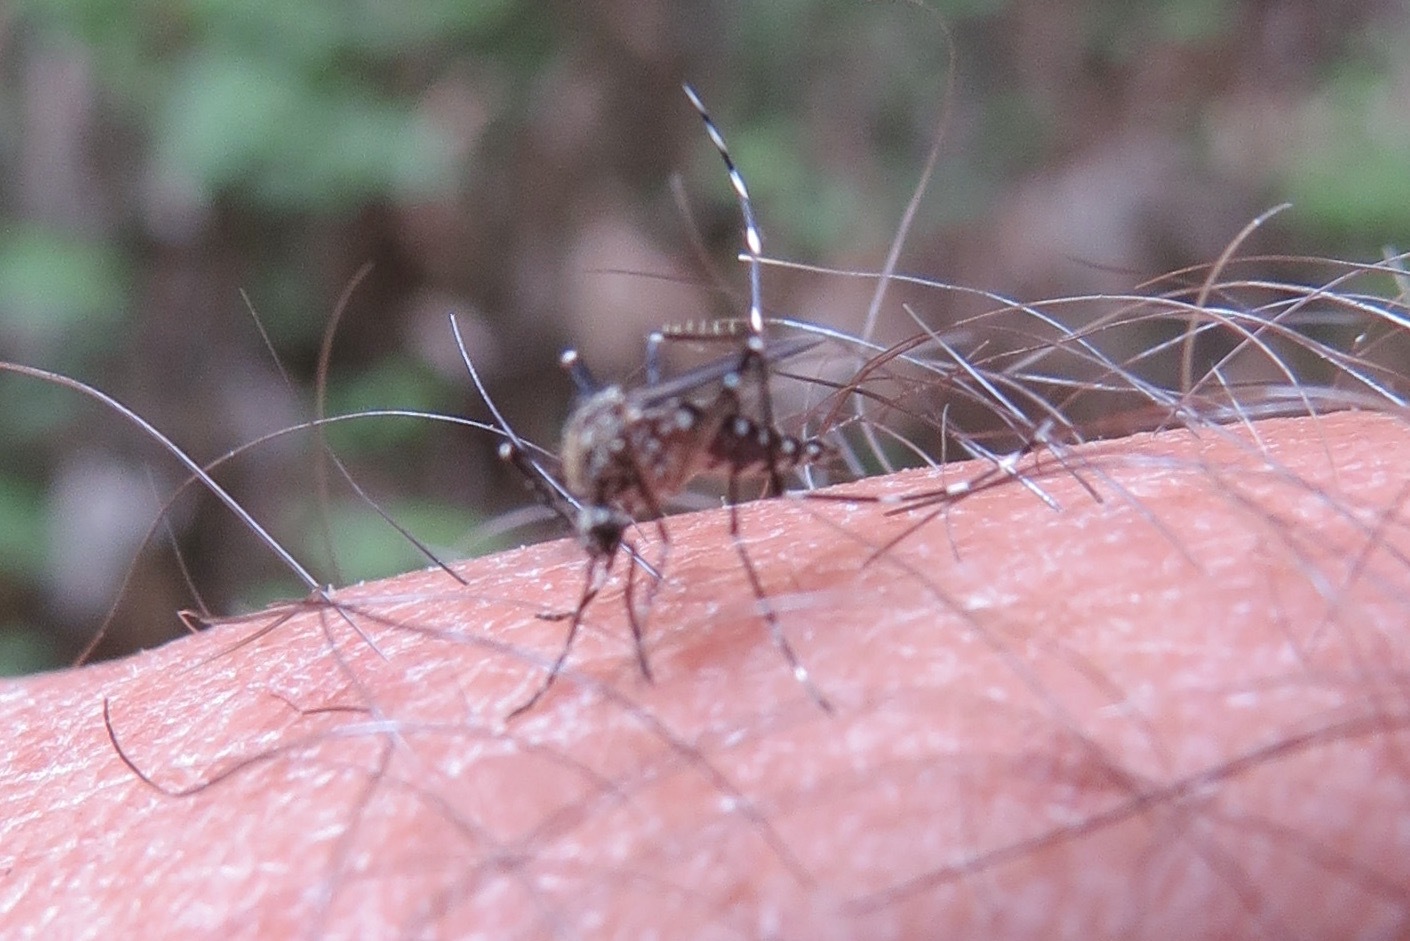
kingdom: Animalia
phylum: Arthropoda
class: Insecta
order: Diptera
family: Culicidae
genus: Aedes
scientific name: Aedes sierrensis
